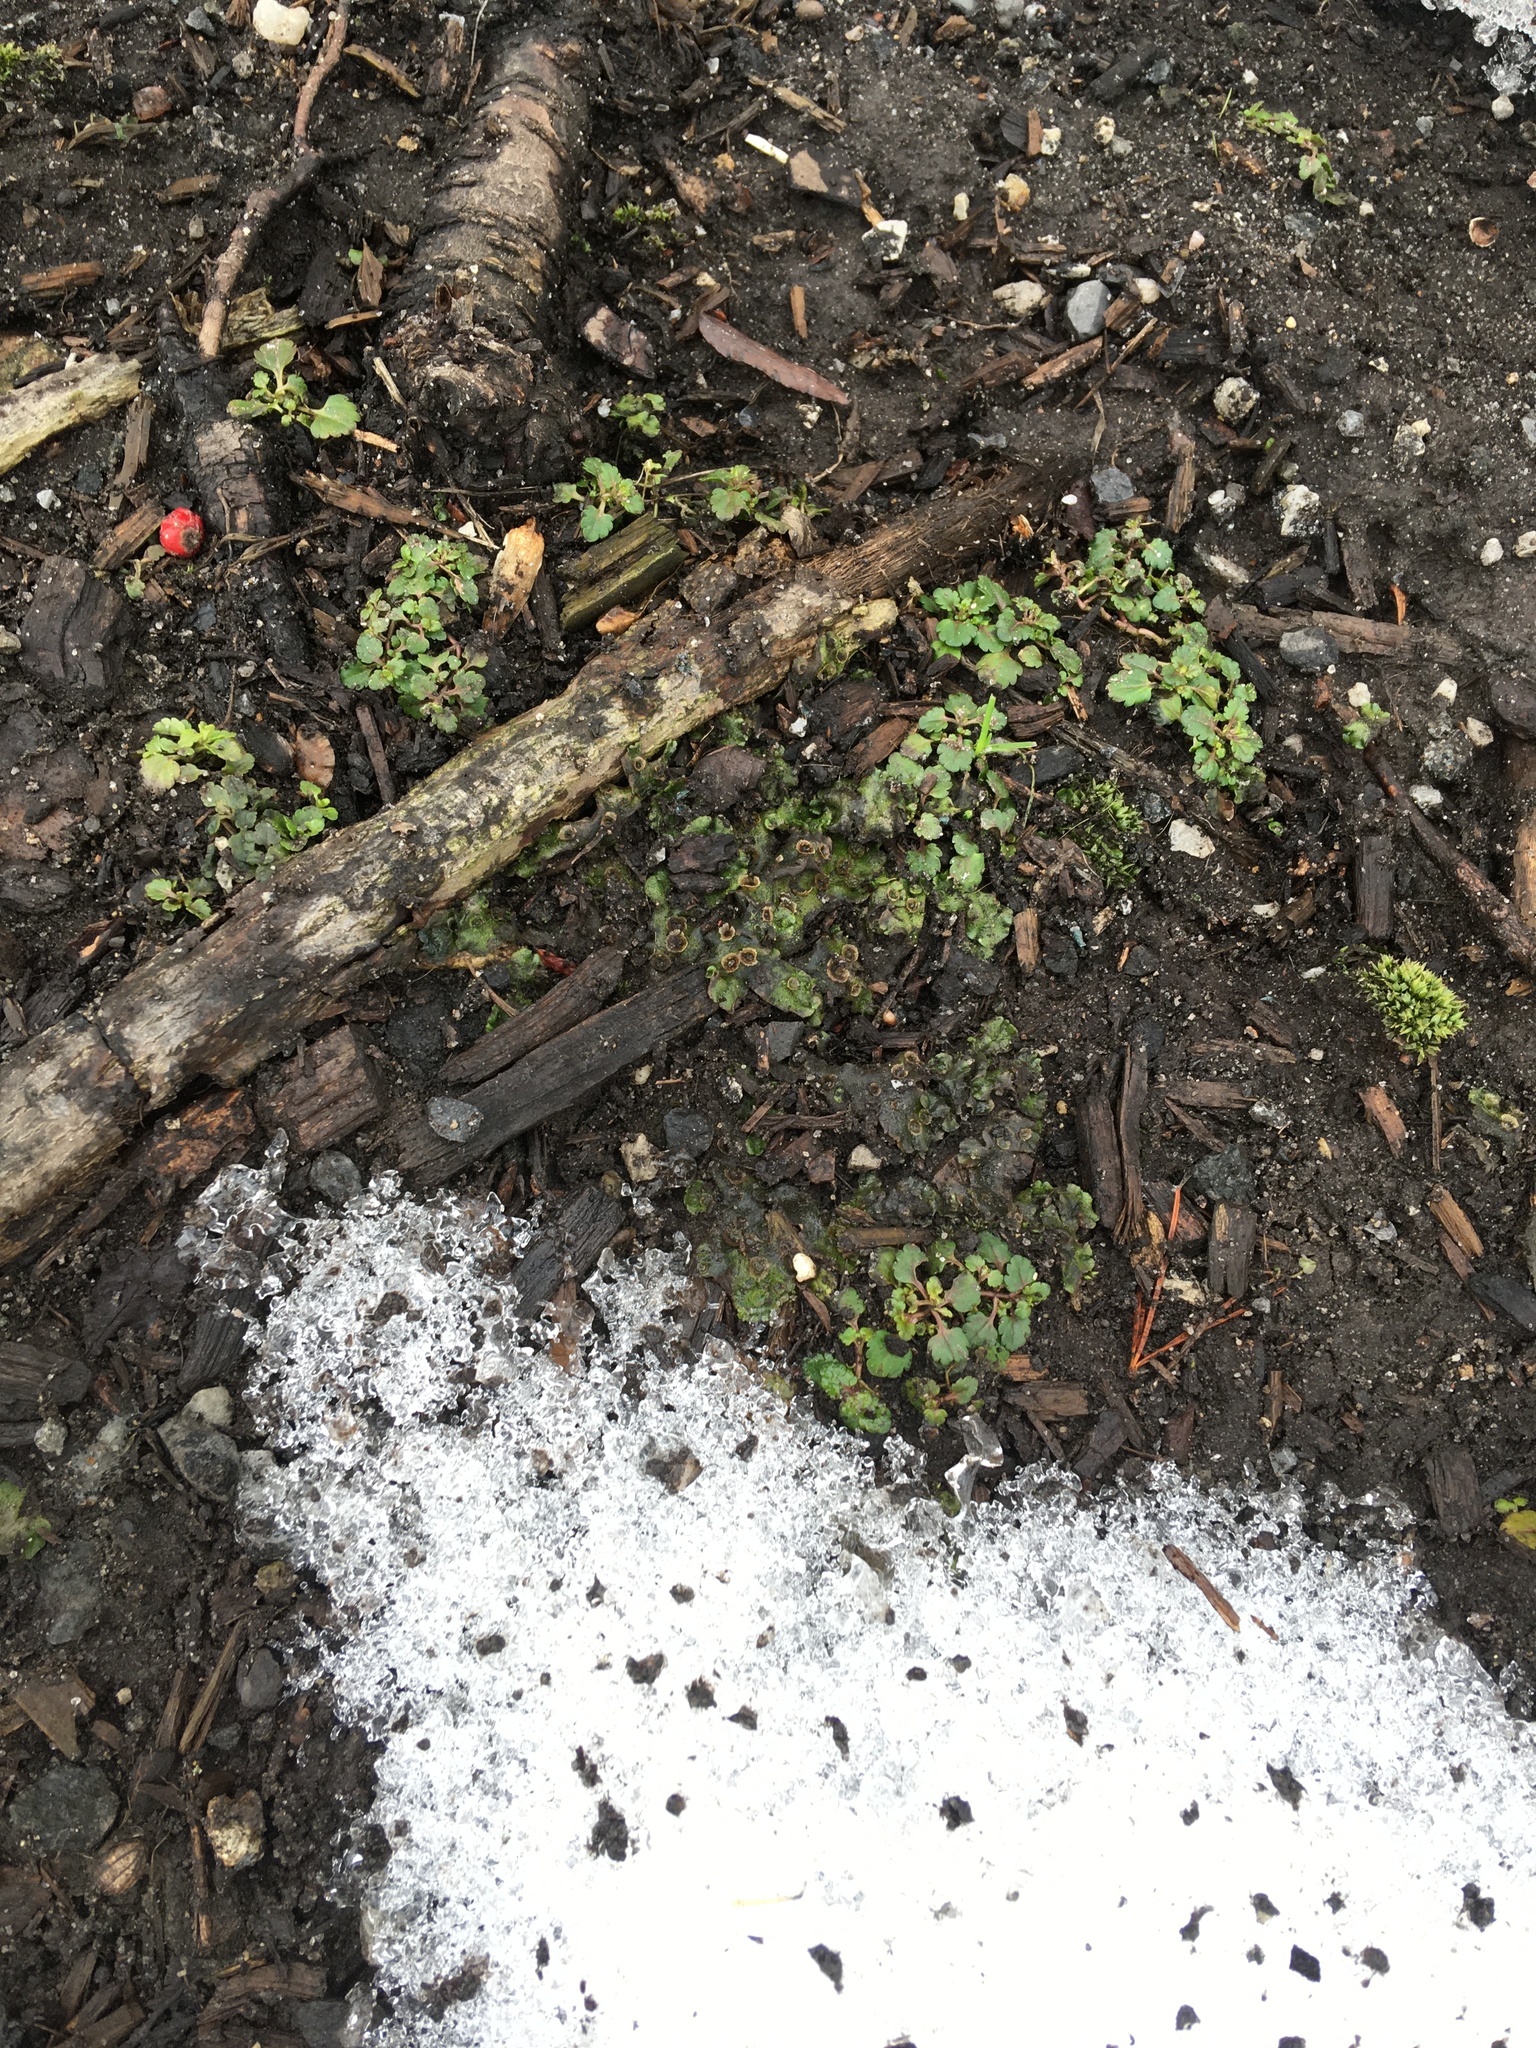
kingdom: Plantae
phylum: Marchantiophyta
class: Marchantiopsida
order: Marchantiales
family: Marchantiaceae
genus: Marchantia
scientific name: Marchantia polymorpha
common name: Common liverwort
